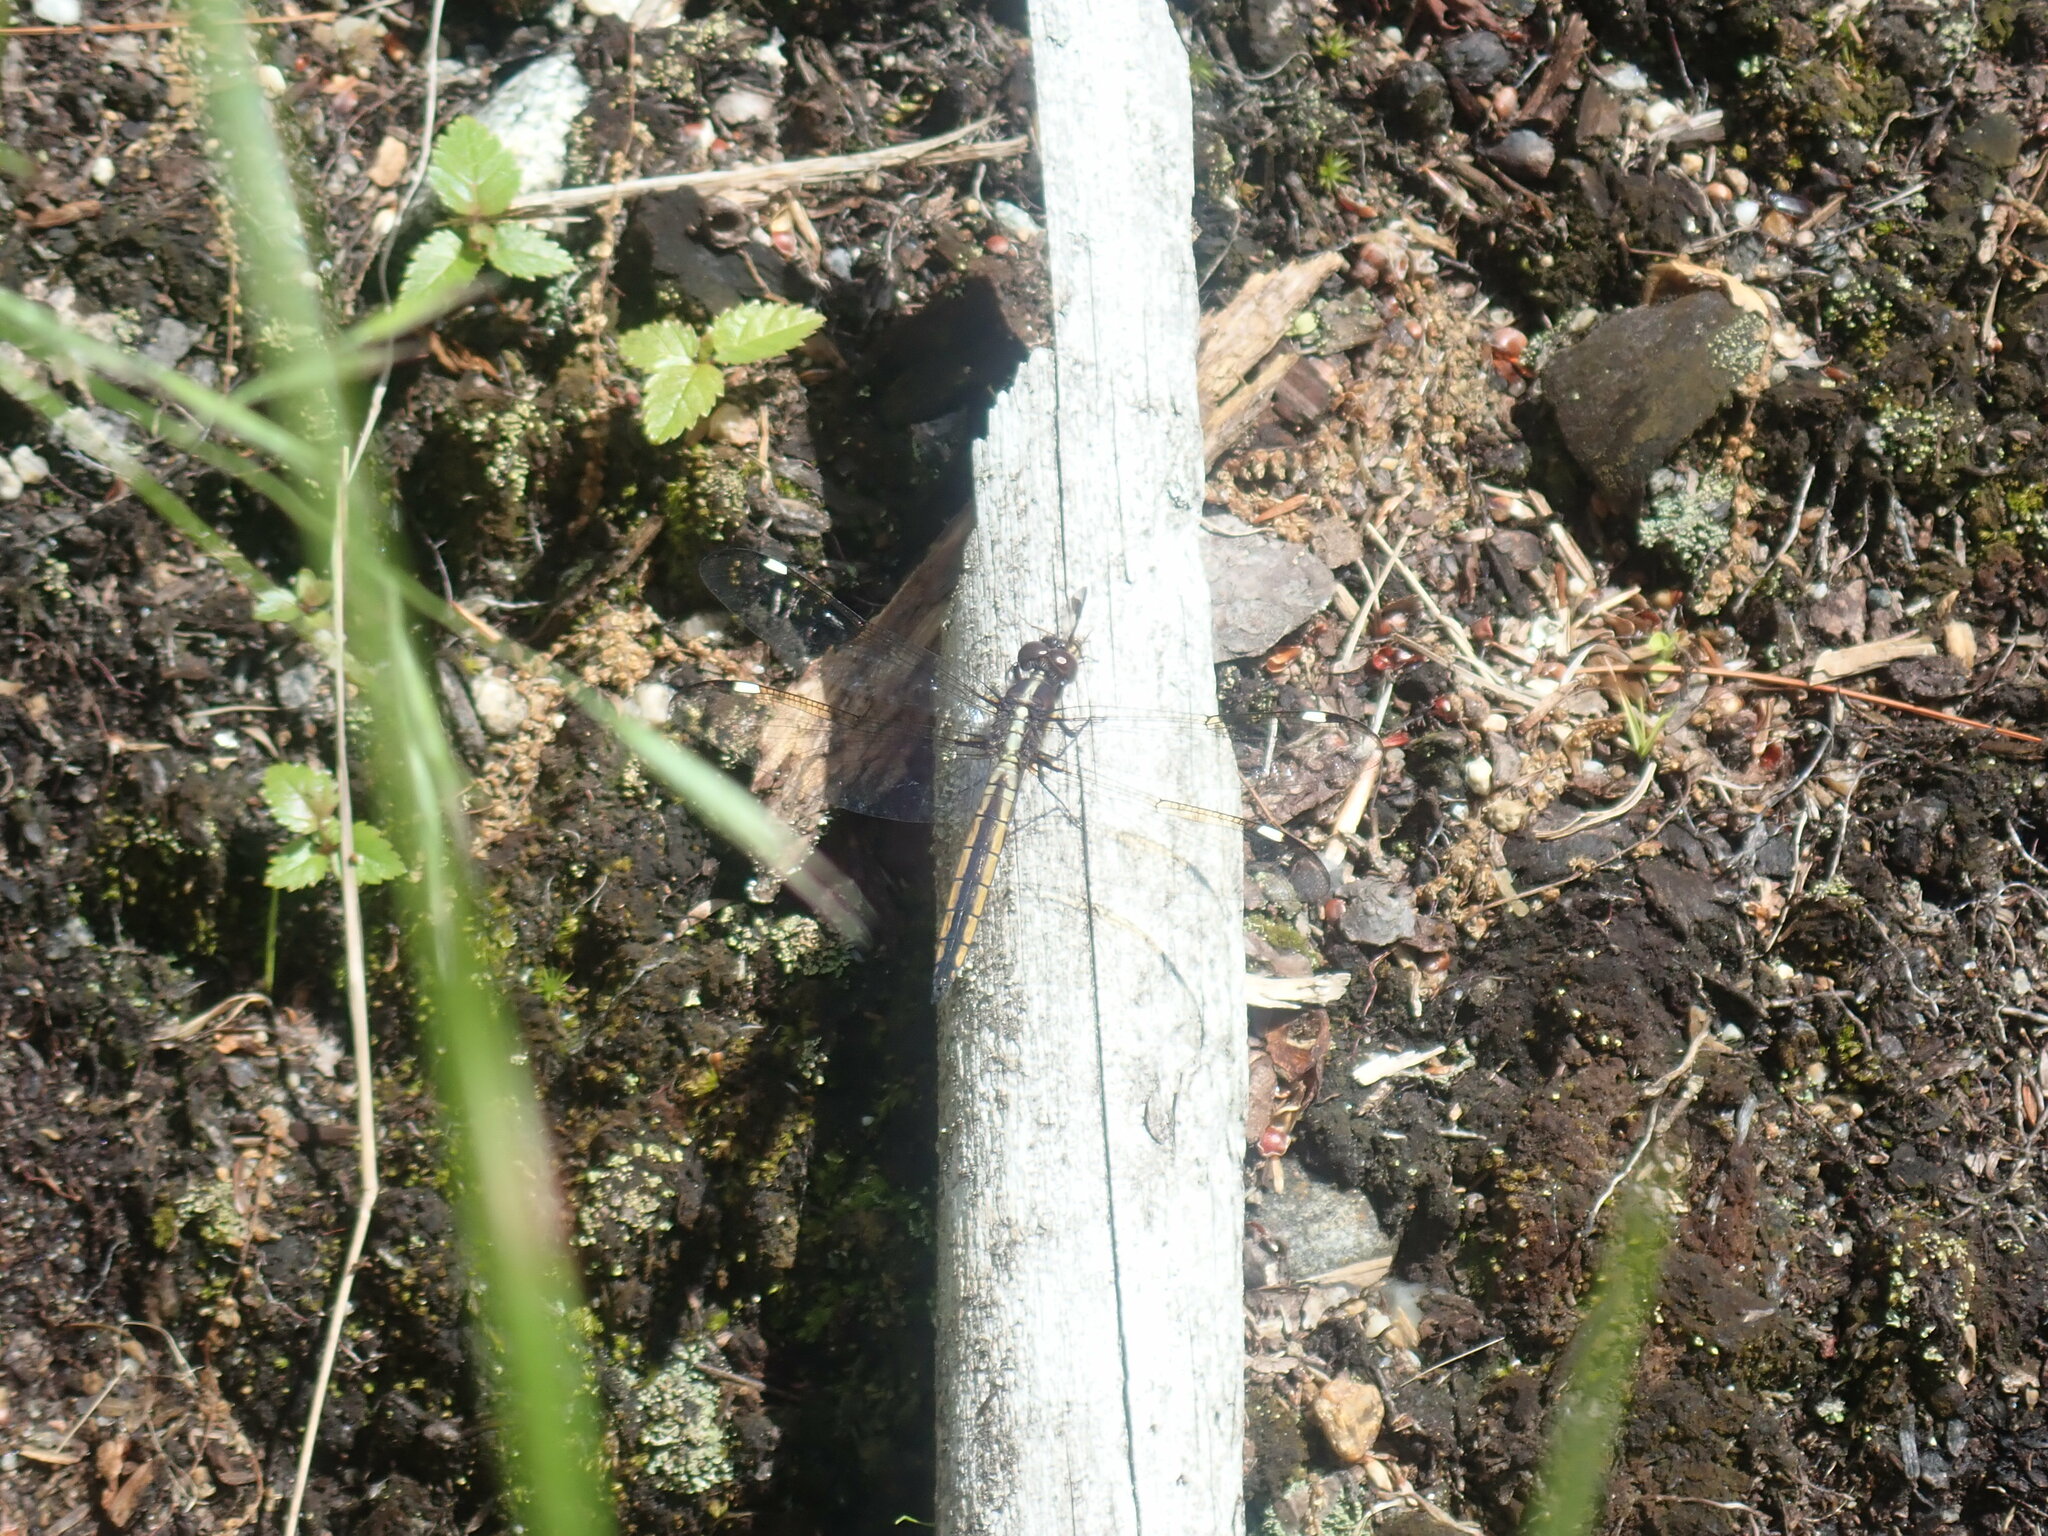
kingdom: Animalia
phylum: Arthropoda
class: Insecta
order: Odonata
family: Libellulidae
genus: Libellula
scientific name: Libellula cyanea
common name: Spangled skimmer
